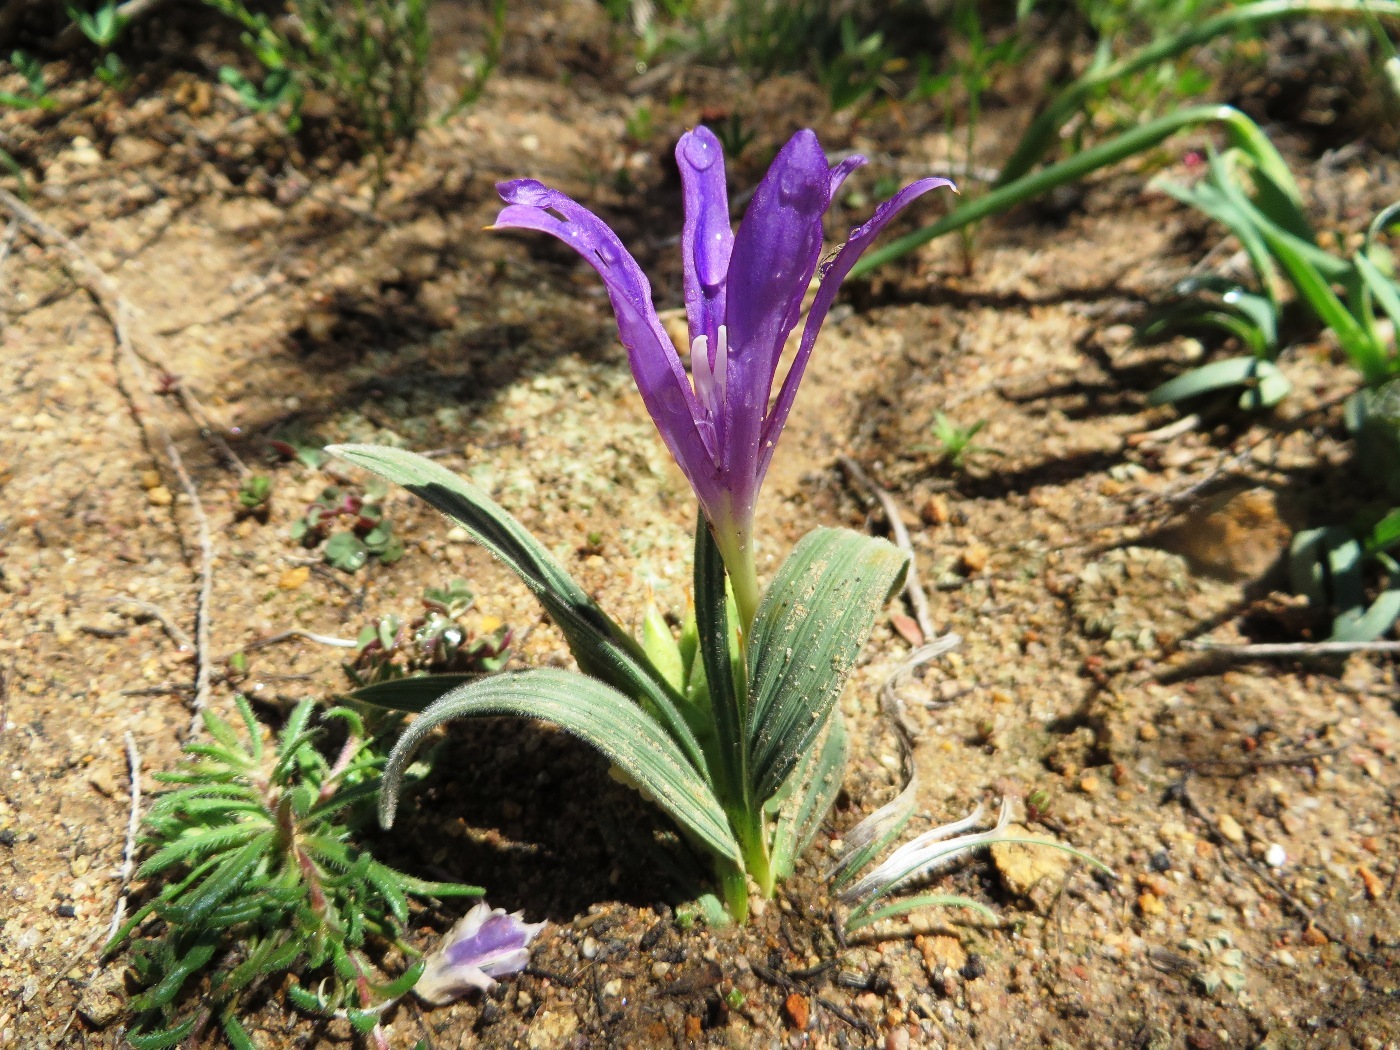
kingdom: Plantae
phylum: Tracheophyta
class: Liliopsida
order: Asparagales
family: Iridaceae
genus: Babiana
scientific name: Babiana curviscapa
